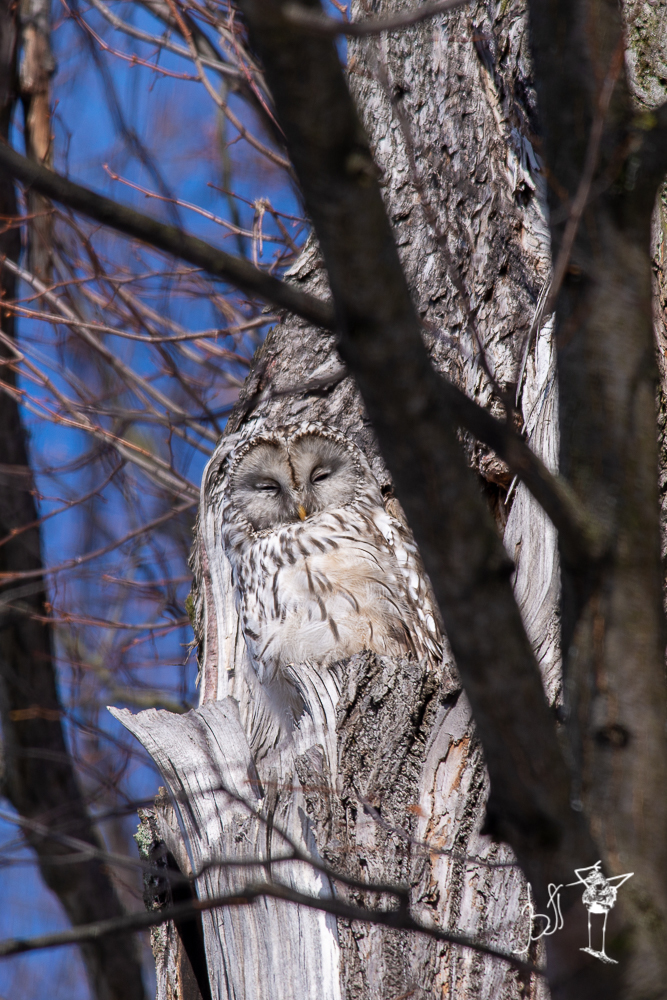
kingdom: Animalia
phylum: Chordata
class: Aves
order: Strigiformes
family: Strigidae
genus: Strix
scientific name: Strix uralensis
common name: Ural owl
